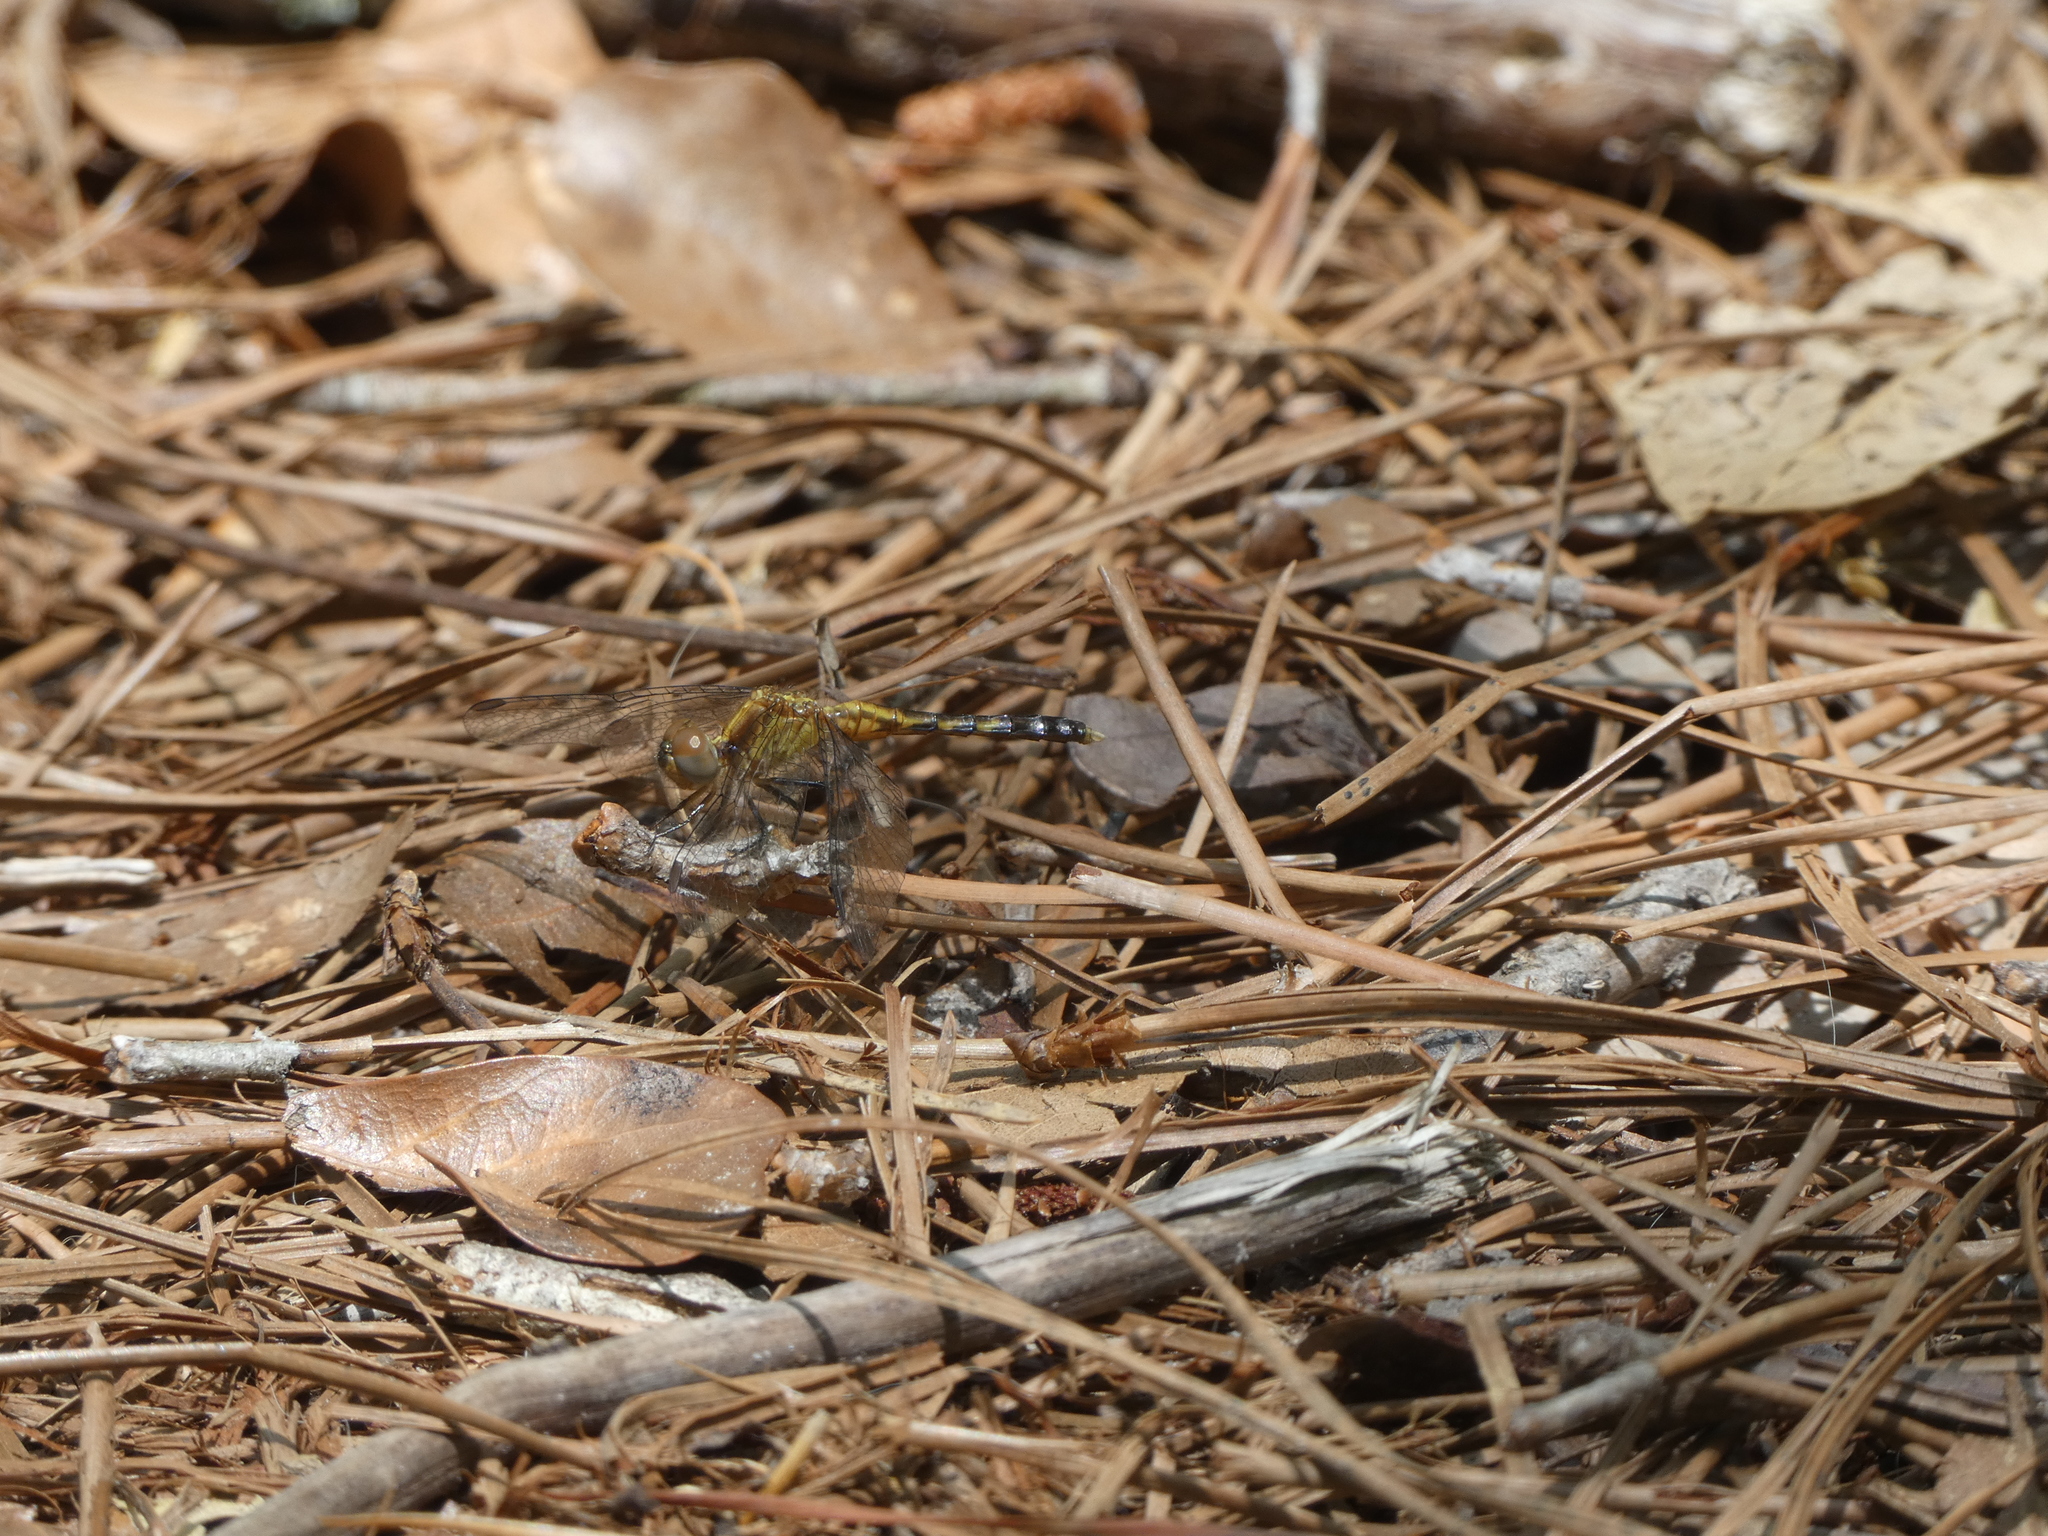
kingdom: Animalia
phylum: Arthropoda
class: Insecta
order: Odonata
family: Libellulidae
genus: Erythrodiplax
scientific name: Erythrodiplax minuscula
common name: Little blue dragonlet
